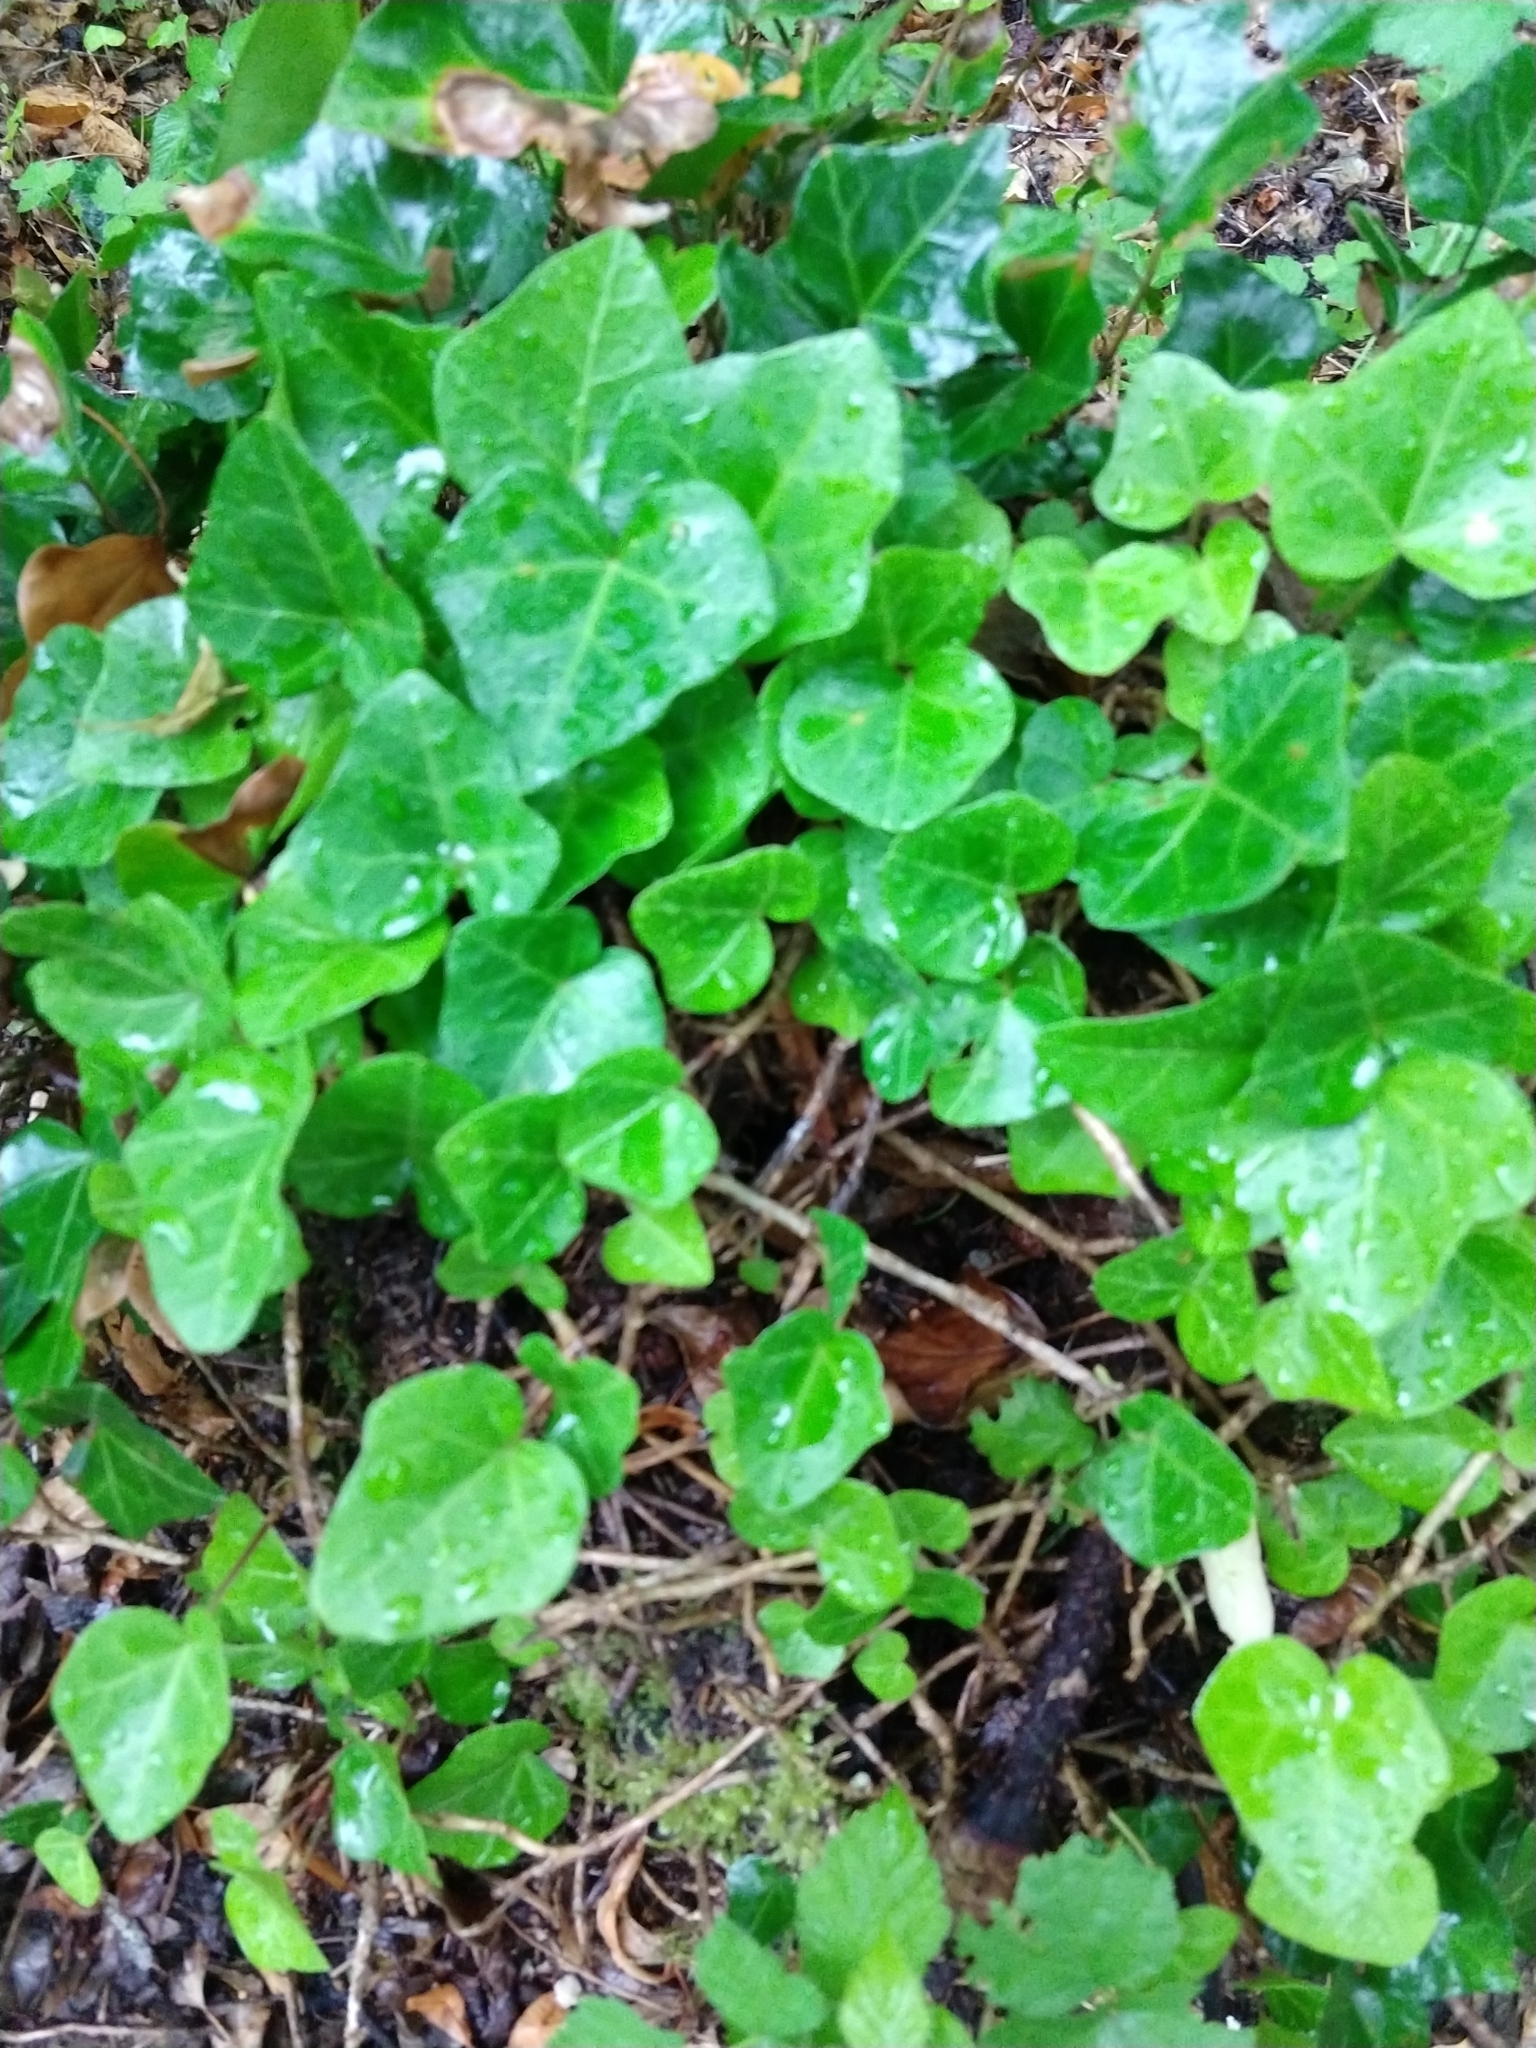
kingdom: Plantae
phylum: Tracheophyta
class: Magnoliopsida
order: Apiales
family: Araliaceae
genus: Hedera
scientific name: Hedera helix
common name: Ivy
